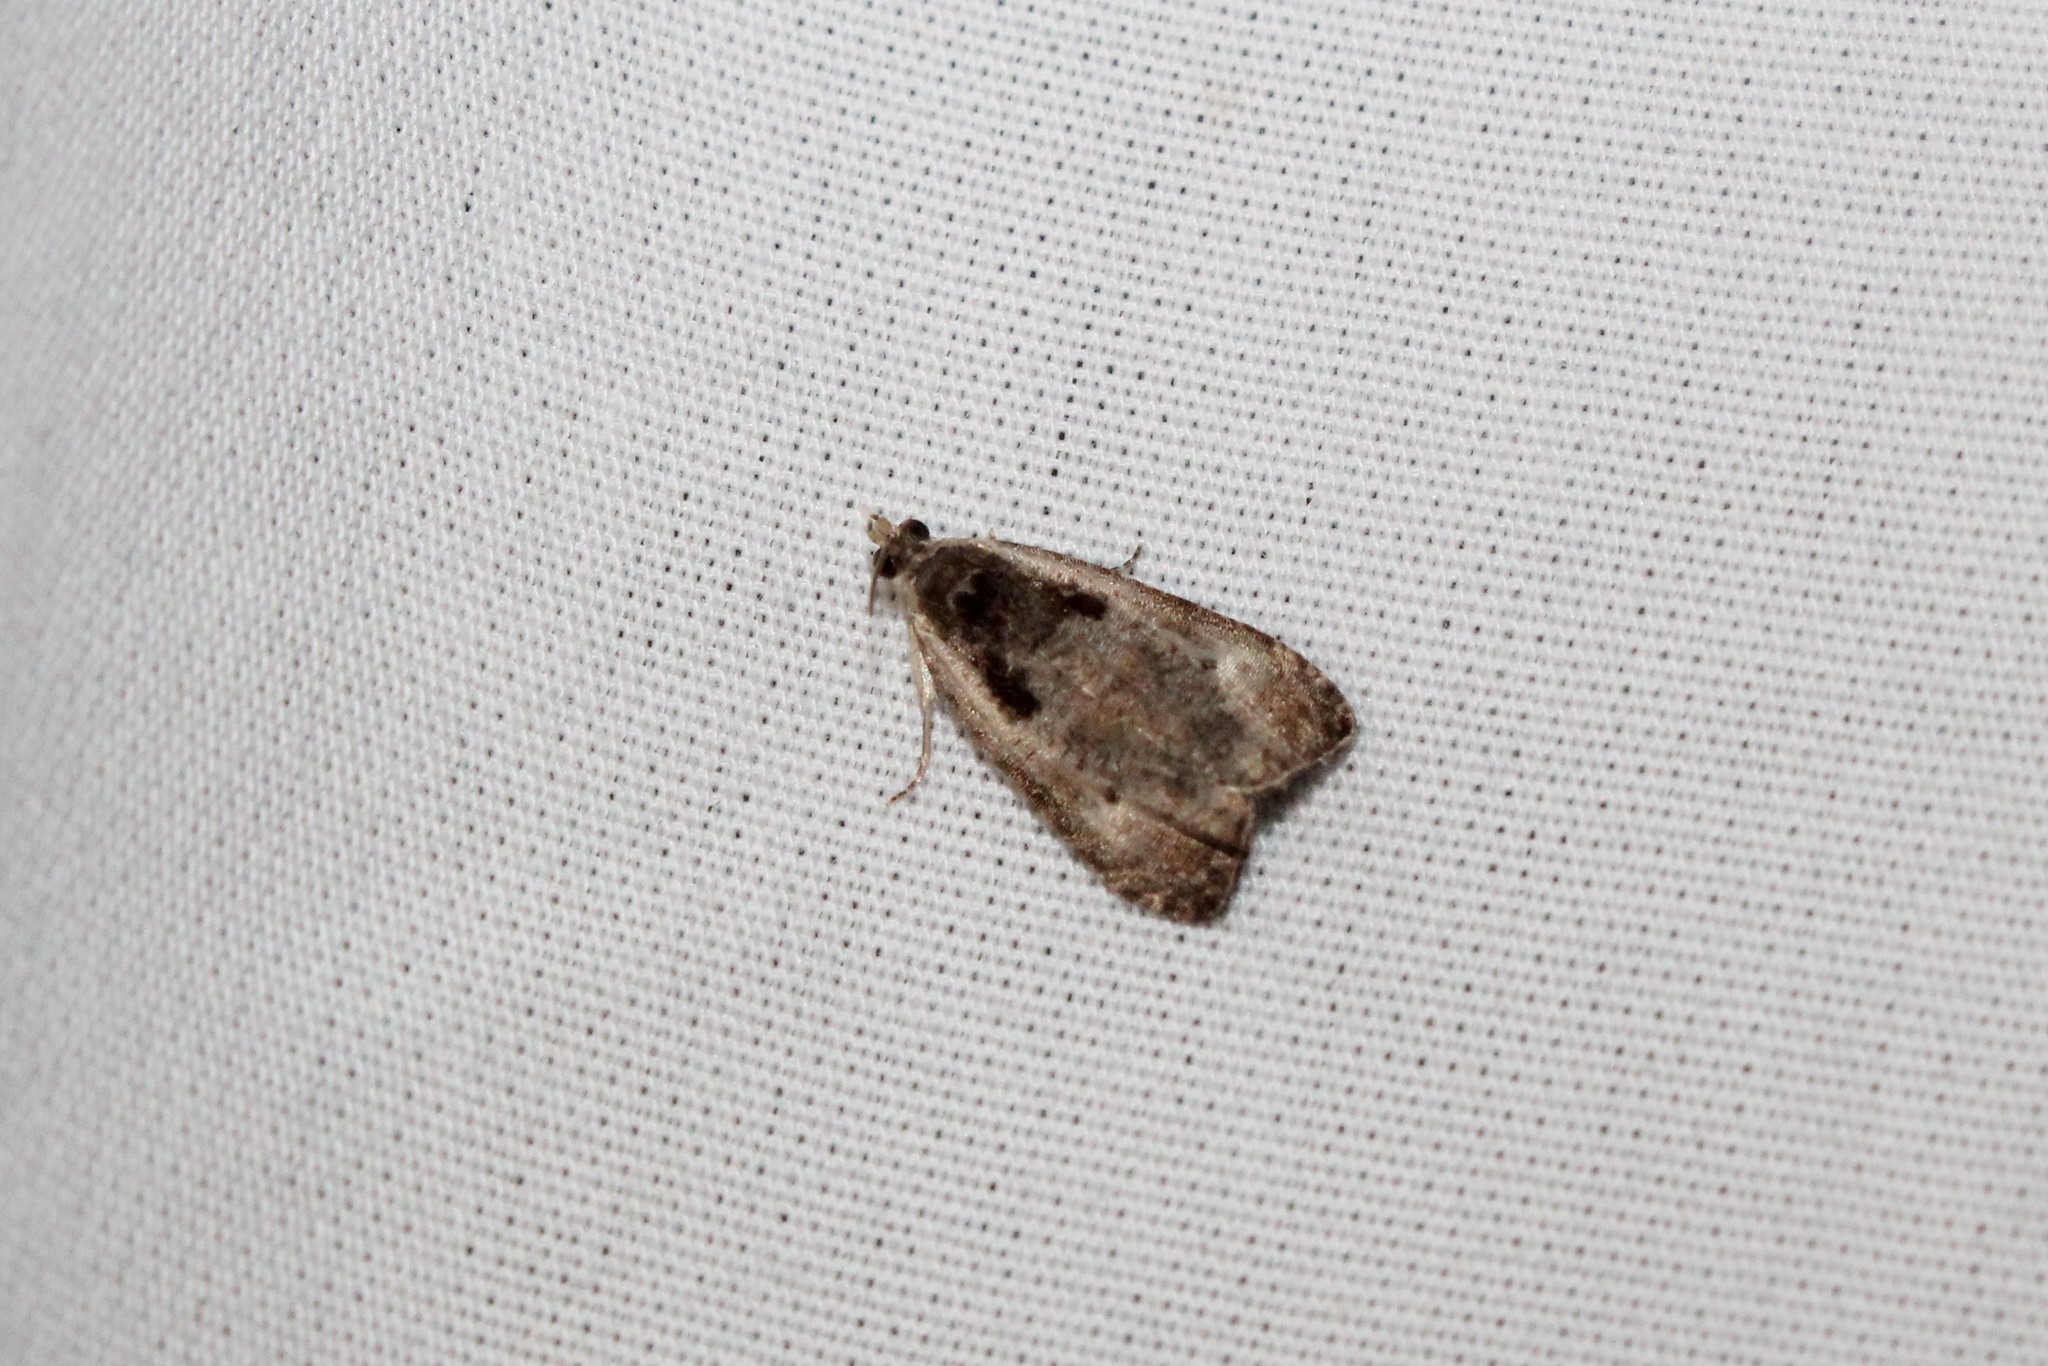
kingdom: Animalia
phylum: Arthropoda
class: Insecta
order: Lepidoptera
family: Tortricidae
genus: Olethreutes
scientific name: Olethreutes inornatana
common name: Inornate olethreutes moth
